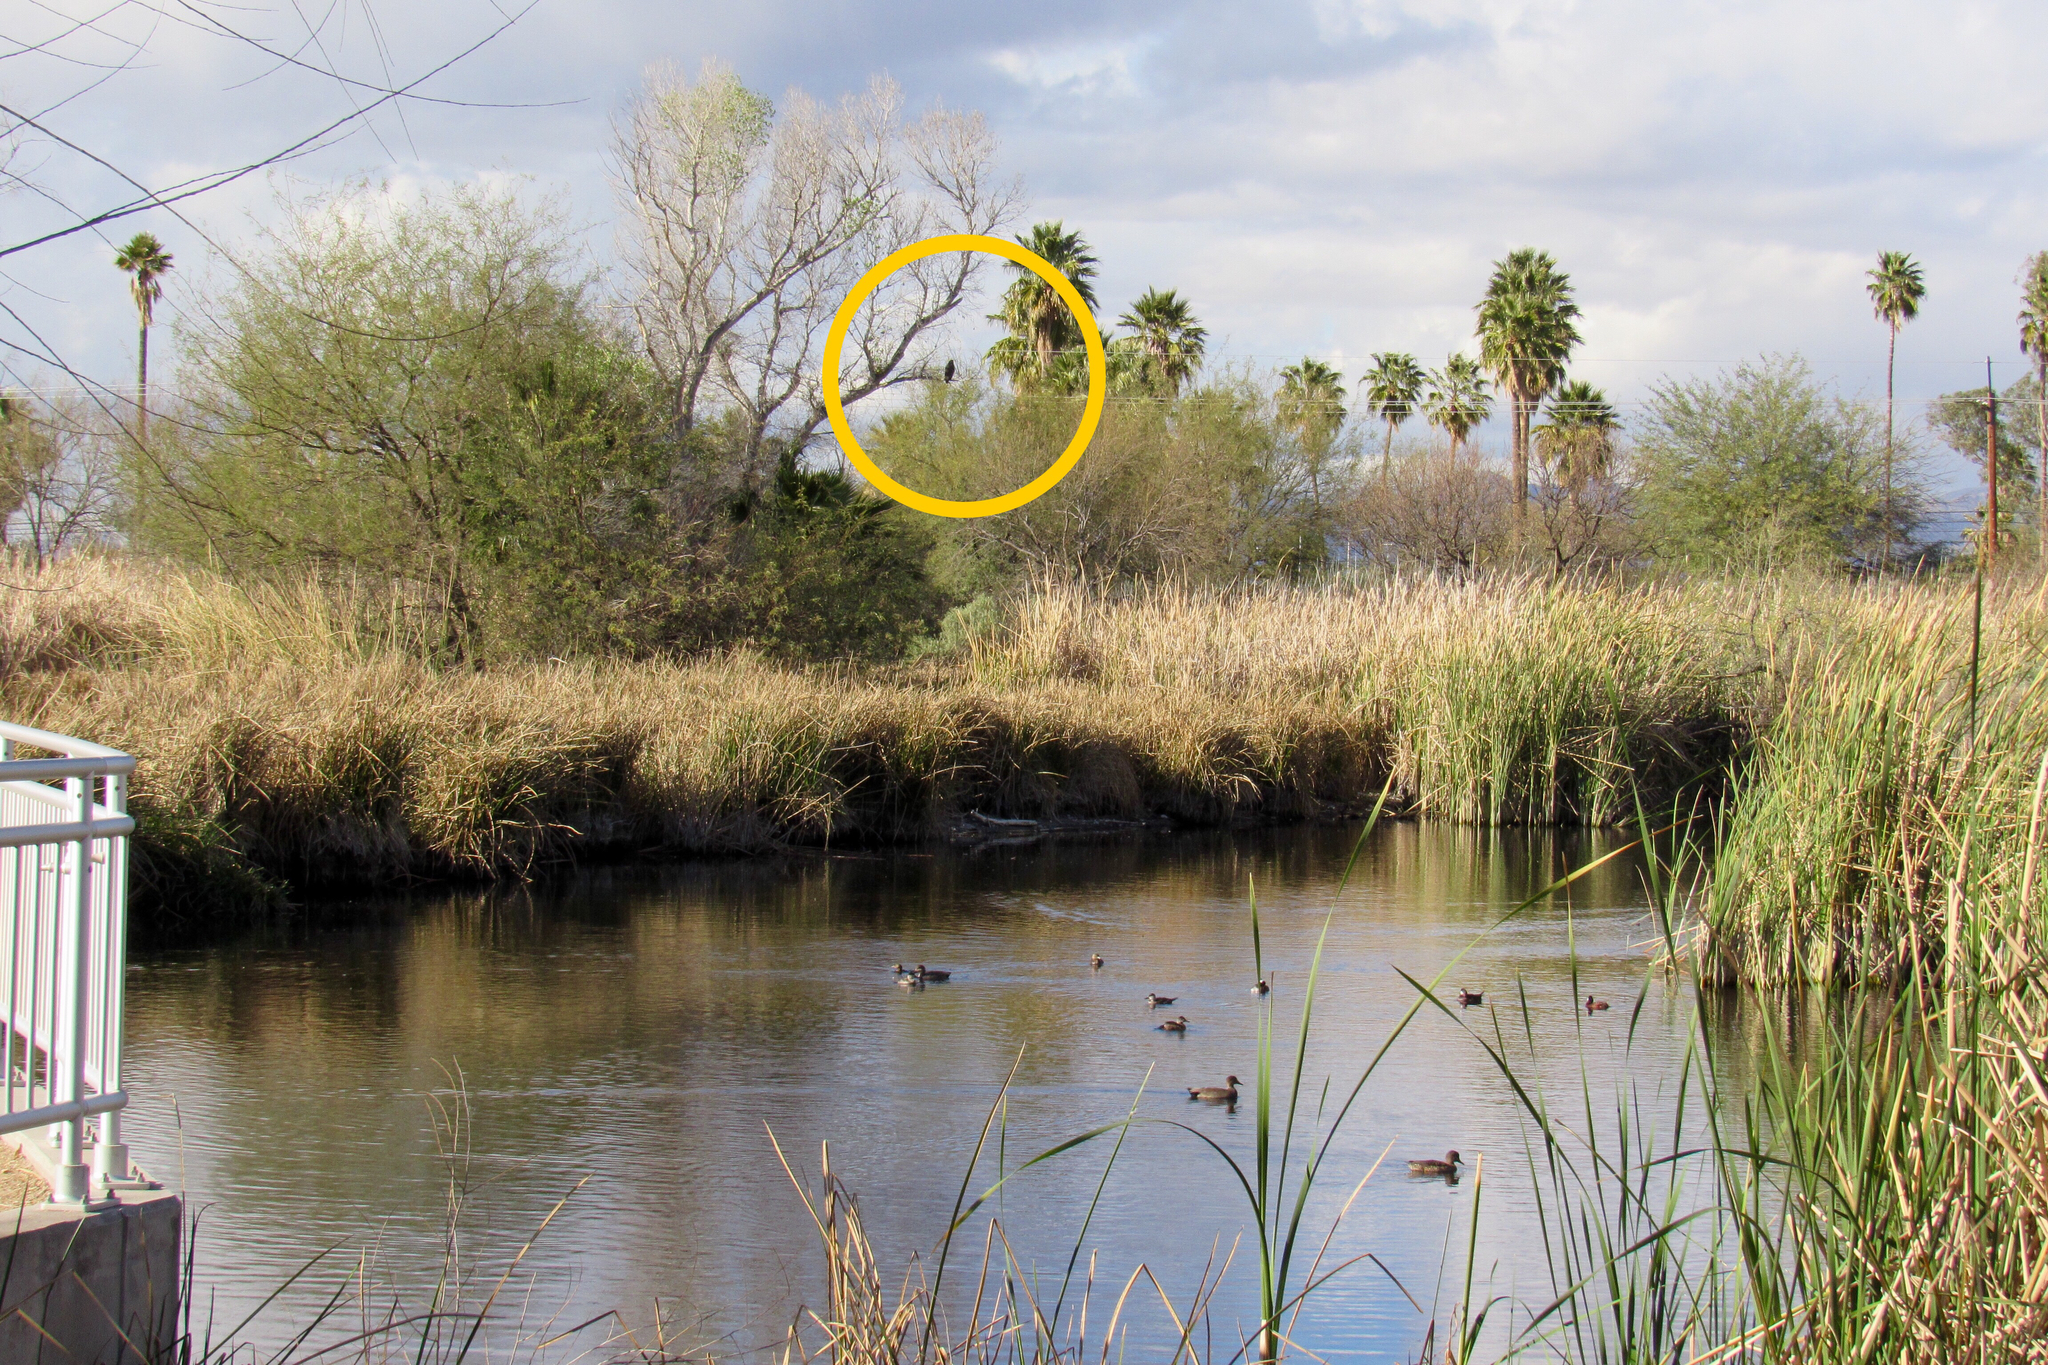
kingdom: Animalia
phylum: Chordata
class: Aves
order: Accipitriformes
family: Accipitridae
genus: Buteogallus
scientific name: Buteogallus anthracinus
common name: Common black hawk
